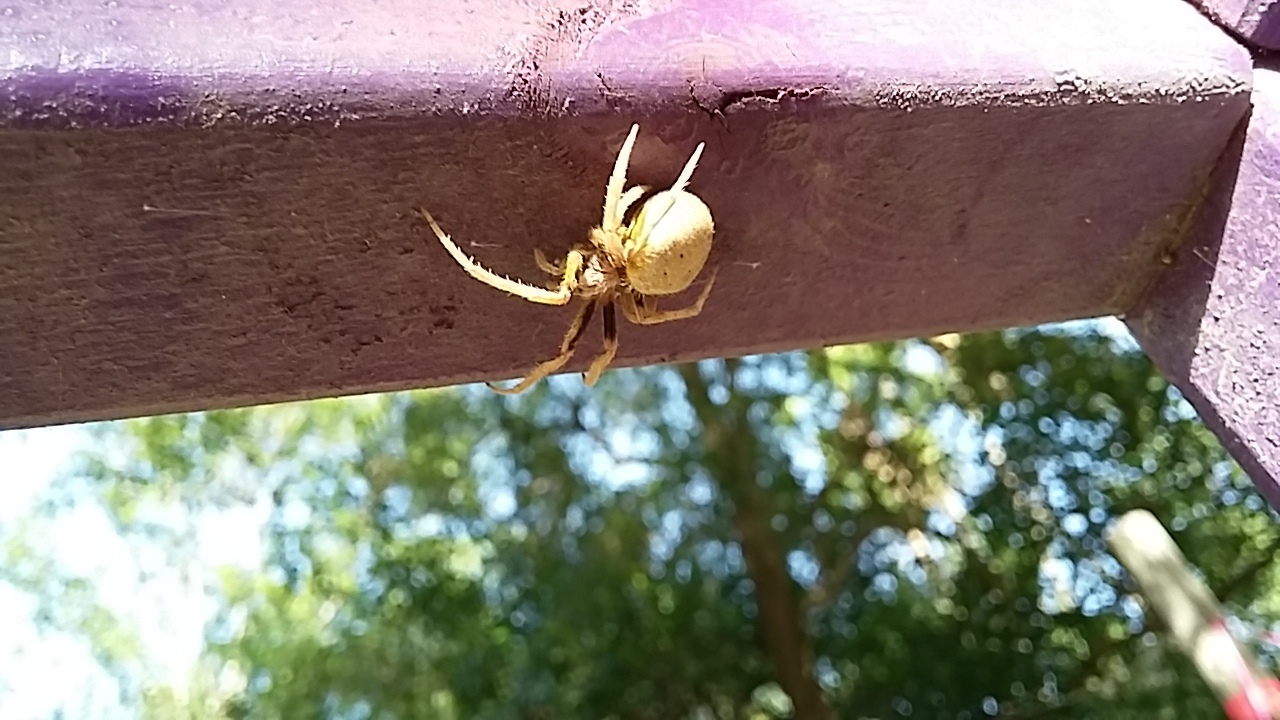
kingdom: Animalia
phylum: Arthropoda
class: Arachnida
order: Araneae
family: Araneidae
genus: Eriophora
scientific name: Eriophora ravilla
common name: Orb weavers
